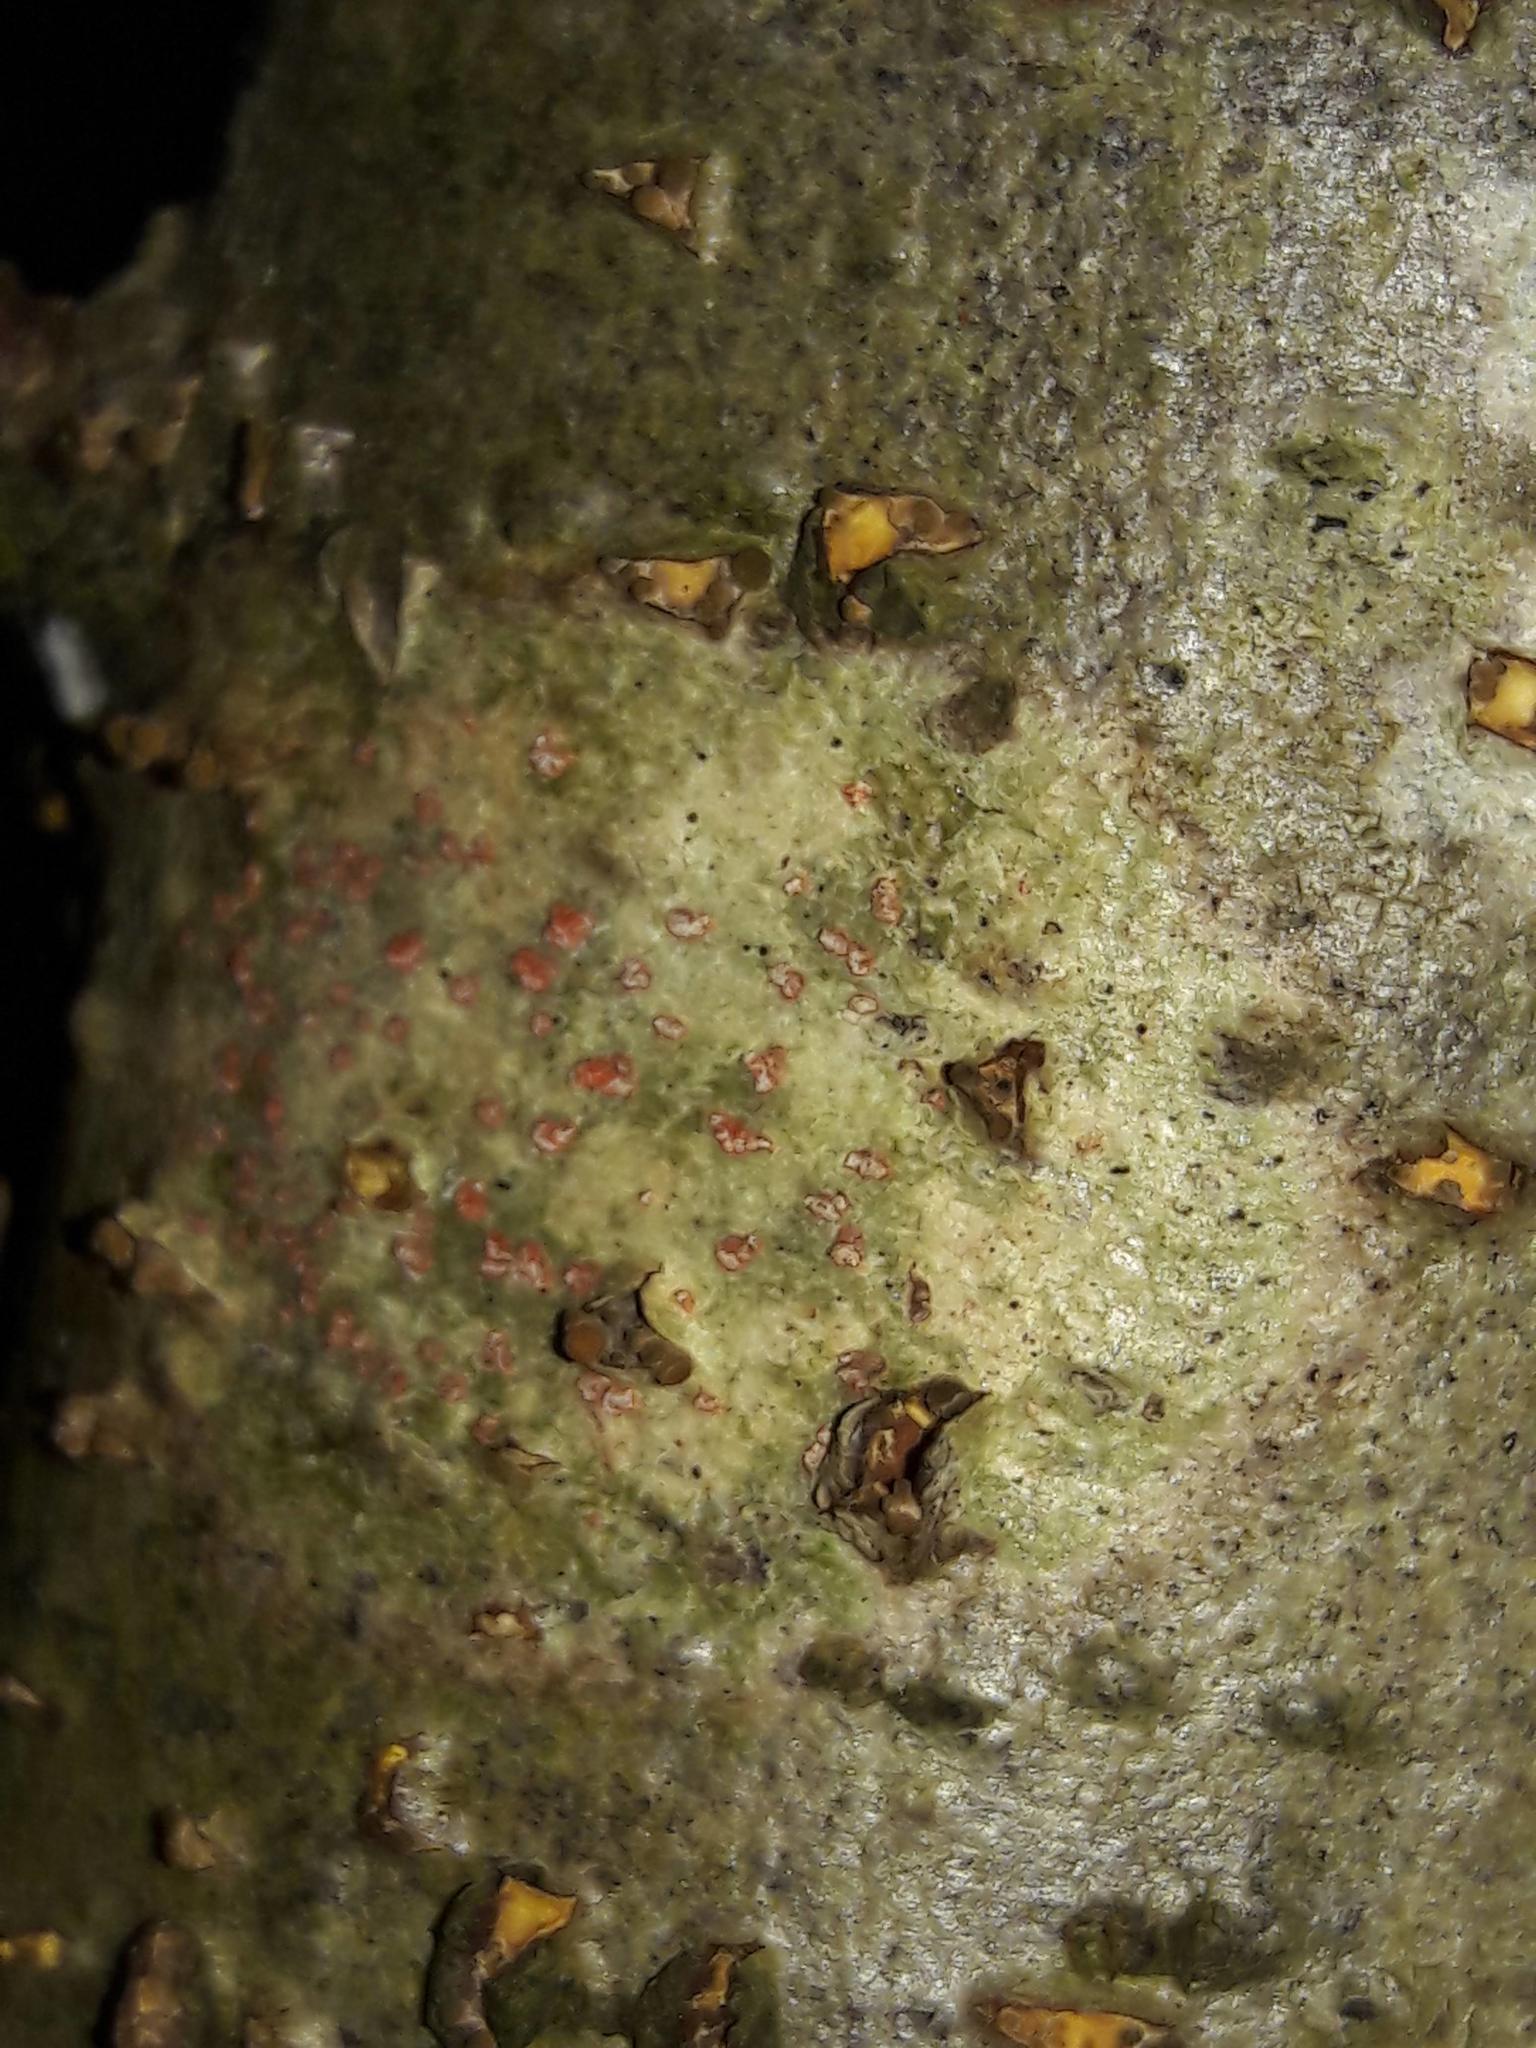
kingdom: Fungi
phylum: Ascomycota
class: Arthoniomycetes
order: Arthoniales
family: Arthoniaceae
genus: Coniocarpon
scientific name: Coniocarpon cinnabarinum
